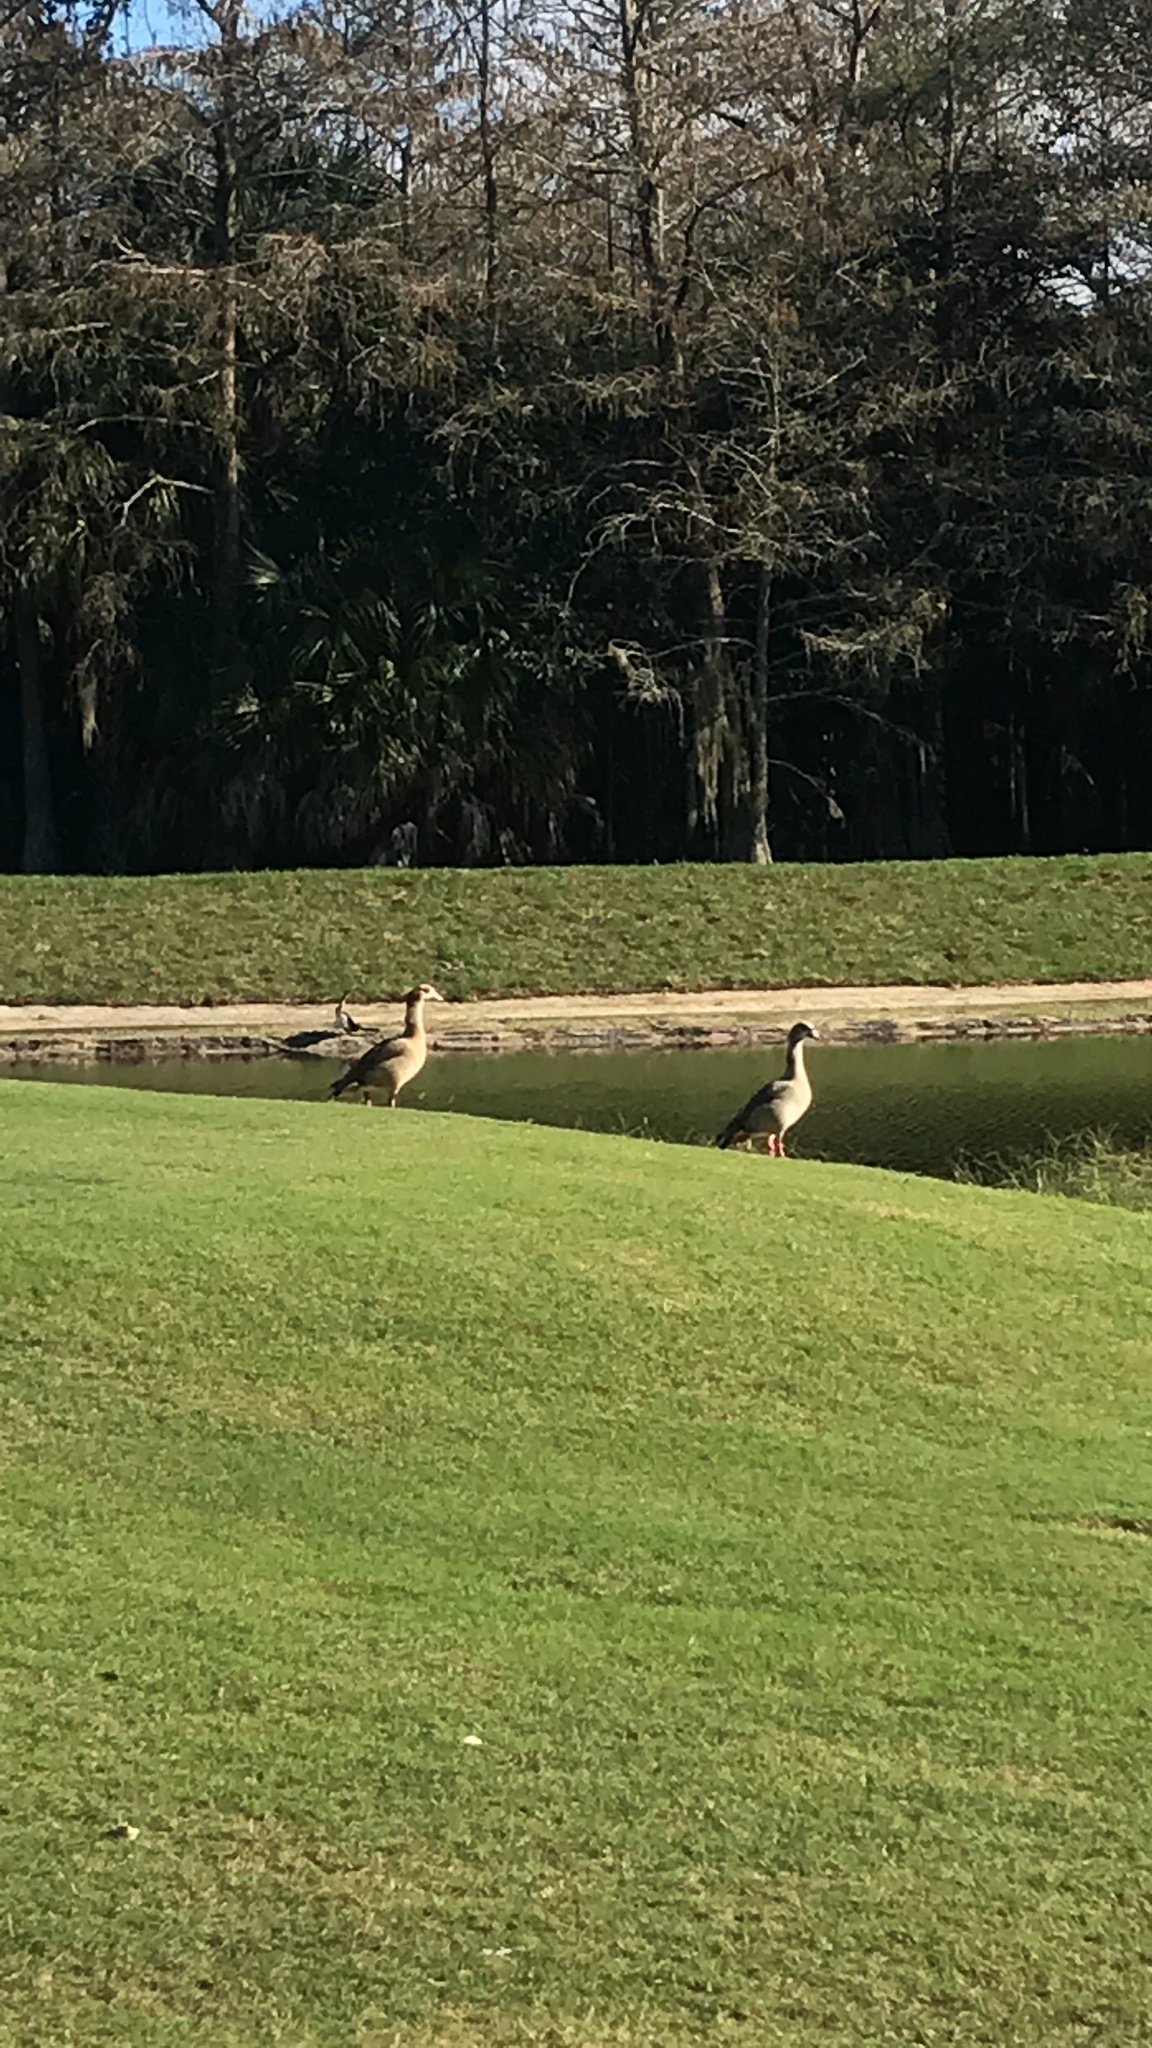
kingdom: Animalia
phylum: Chordata
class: Aves
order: Anseriformes
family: Anatidae
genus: Alopochen
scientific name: Alopochen aegyptiaca
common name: Egyptian goose
